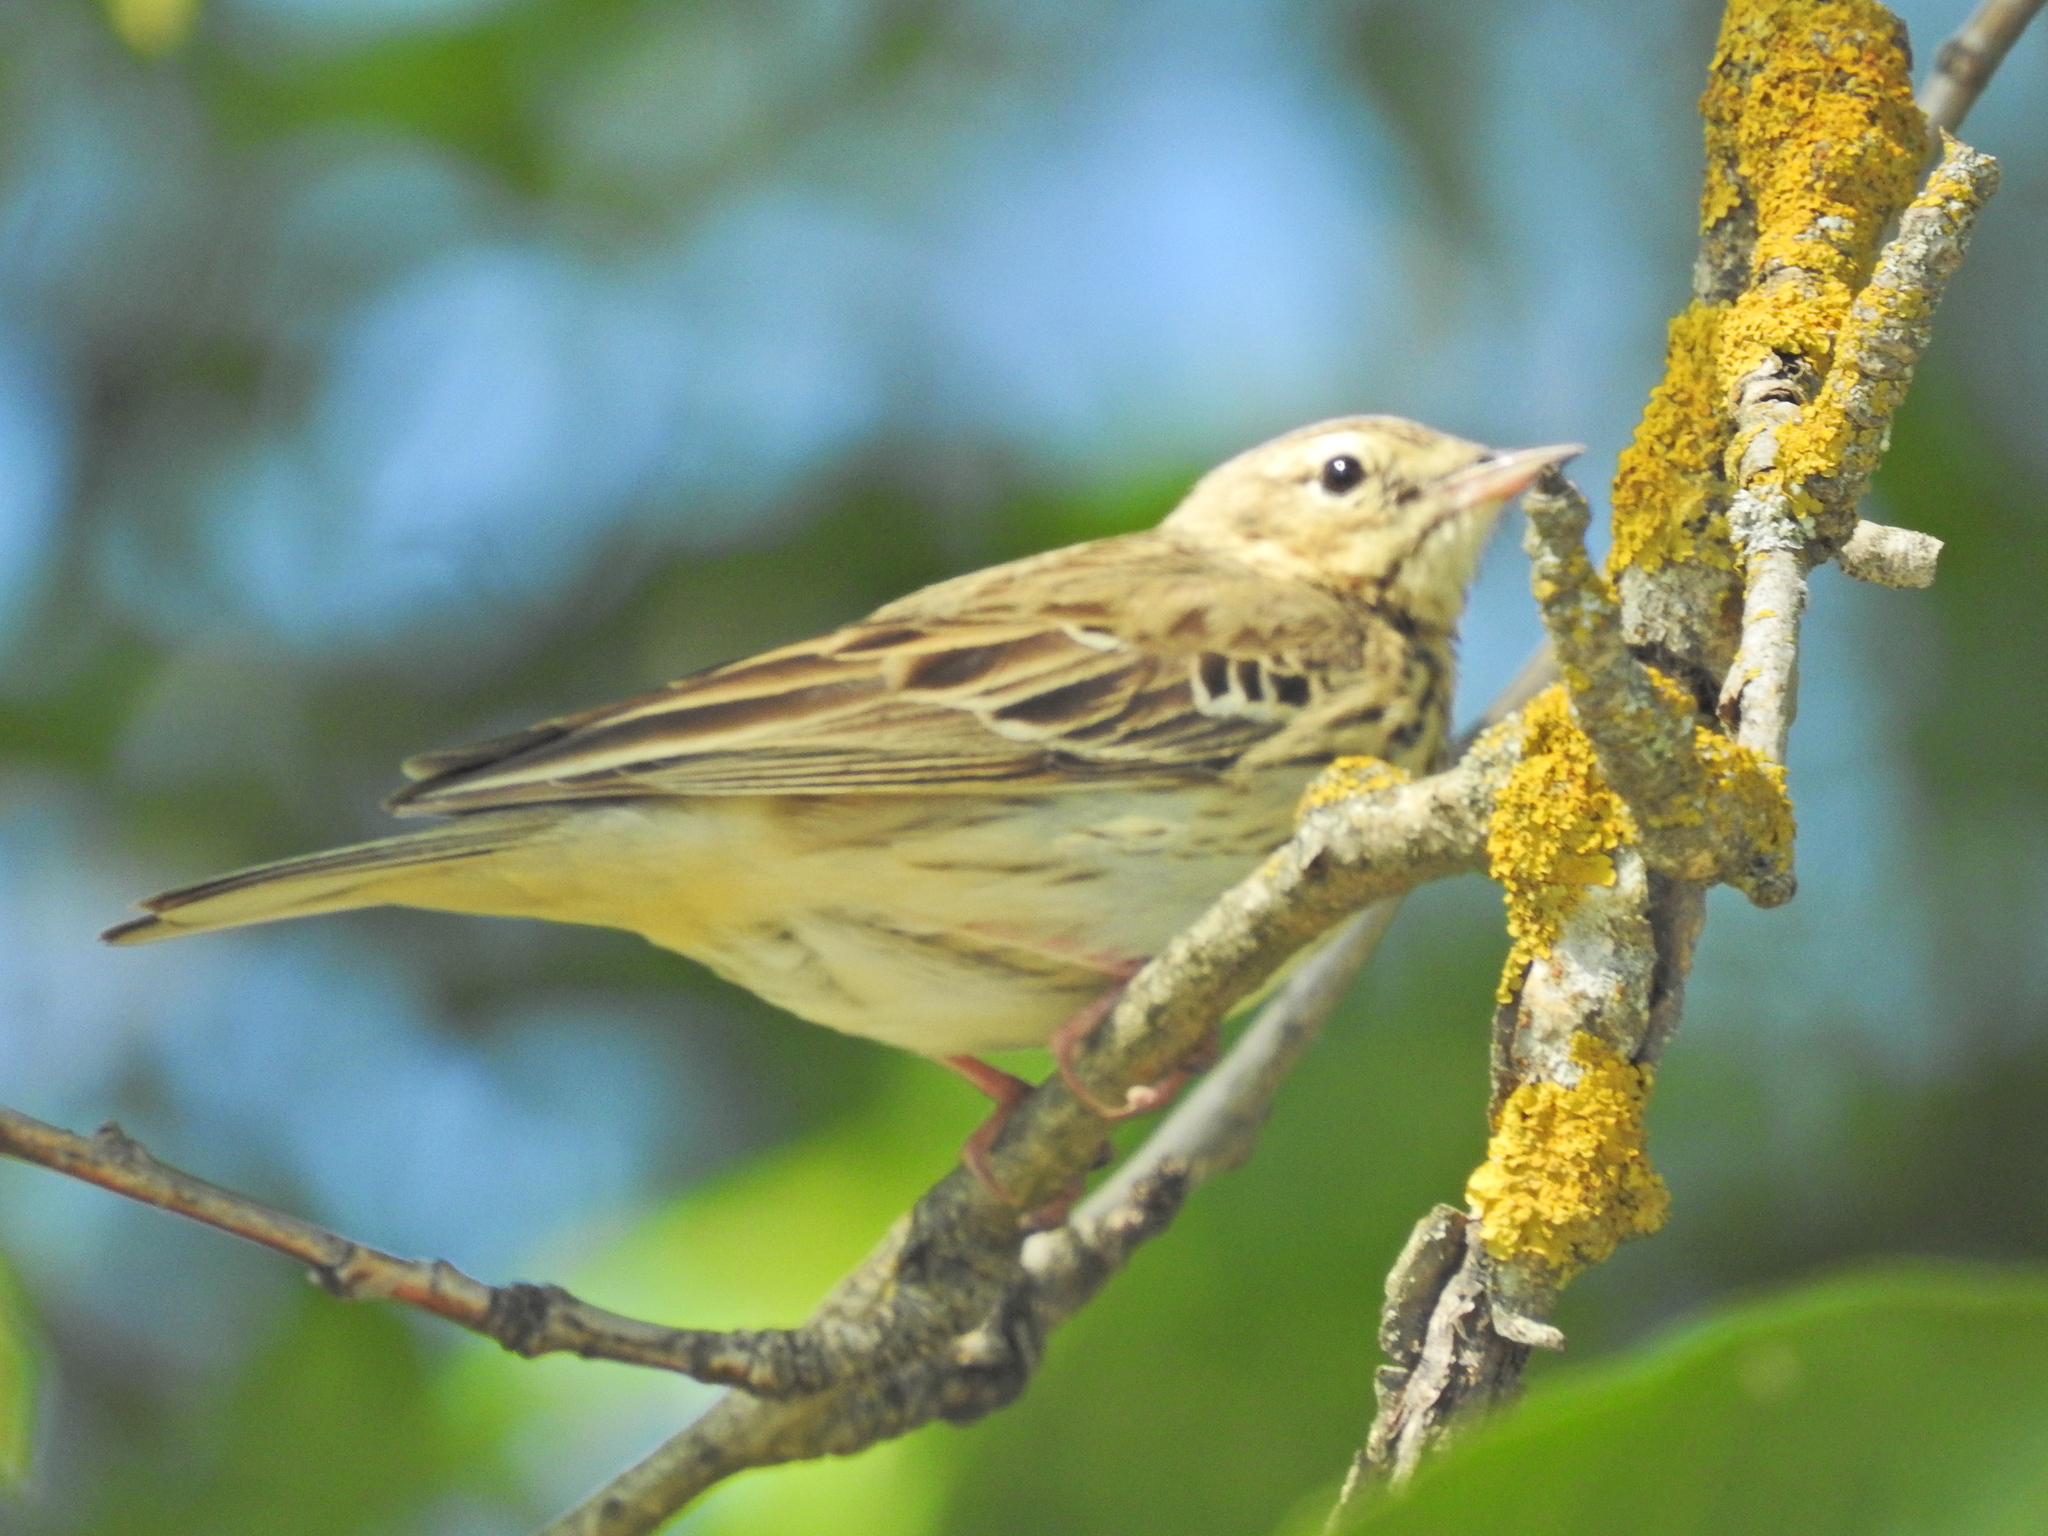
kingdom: Animalia
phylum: Chordata
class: Aves
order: Passeriformes
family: Motacillidae
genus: Anthus
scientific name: Anthus trivialis
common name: Tree pipit
